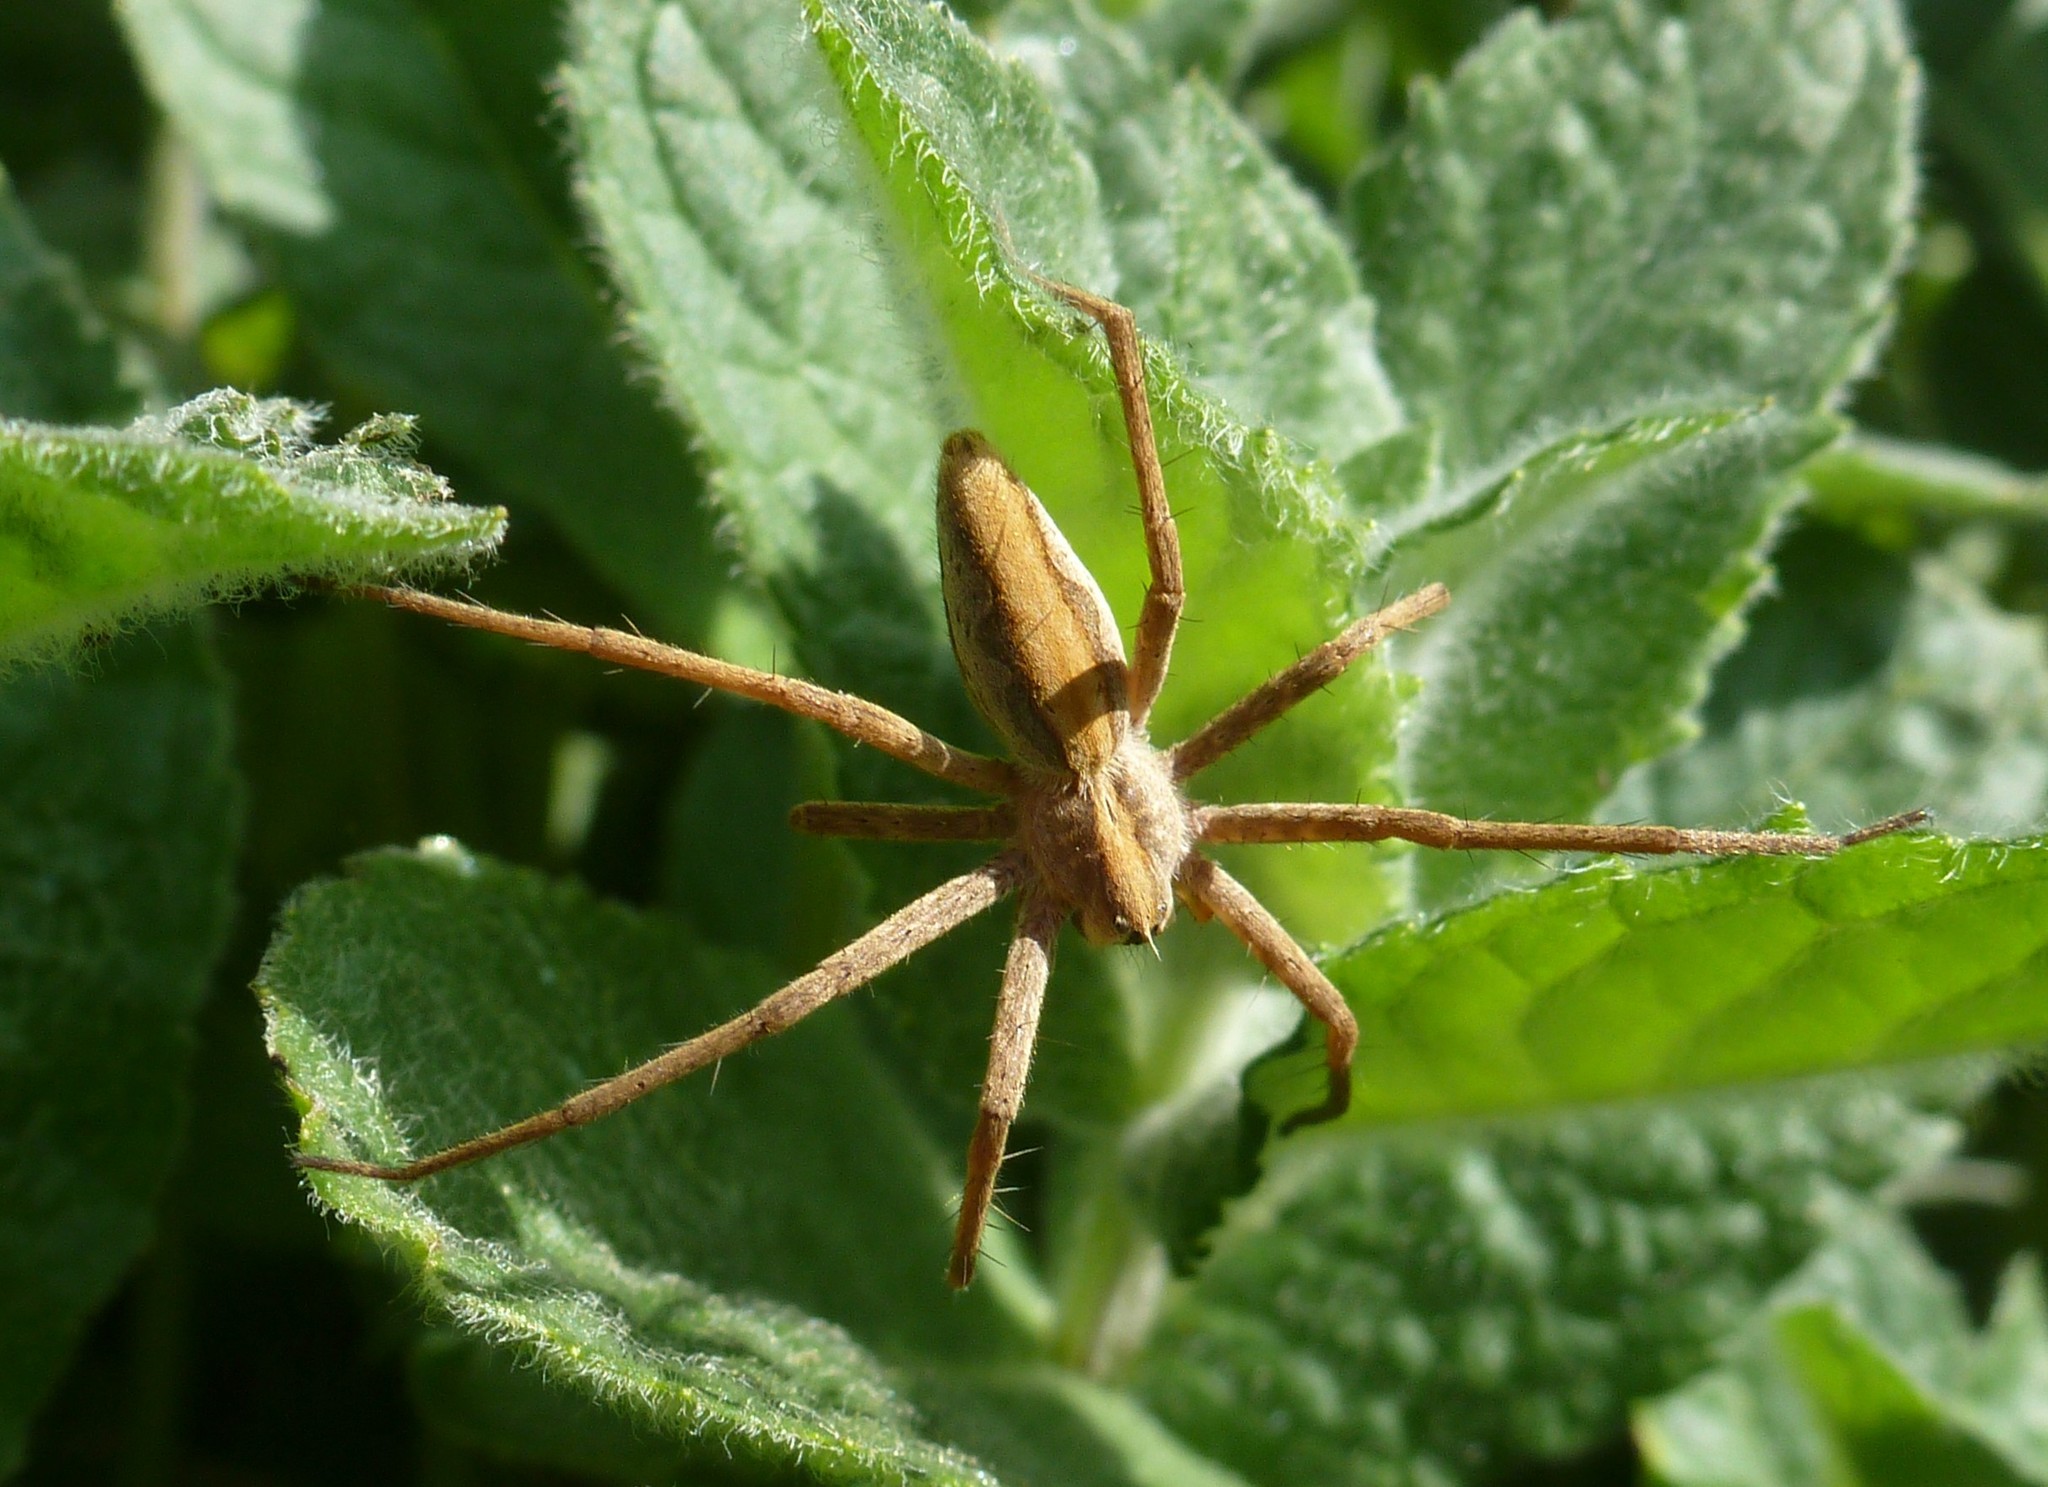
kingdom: Animalia
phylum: Arthropoda
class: Arachnida
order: Araneae
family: Pisauridae
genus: Pisaura
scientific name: Pisaura
